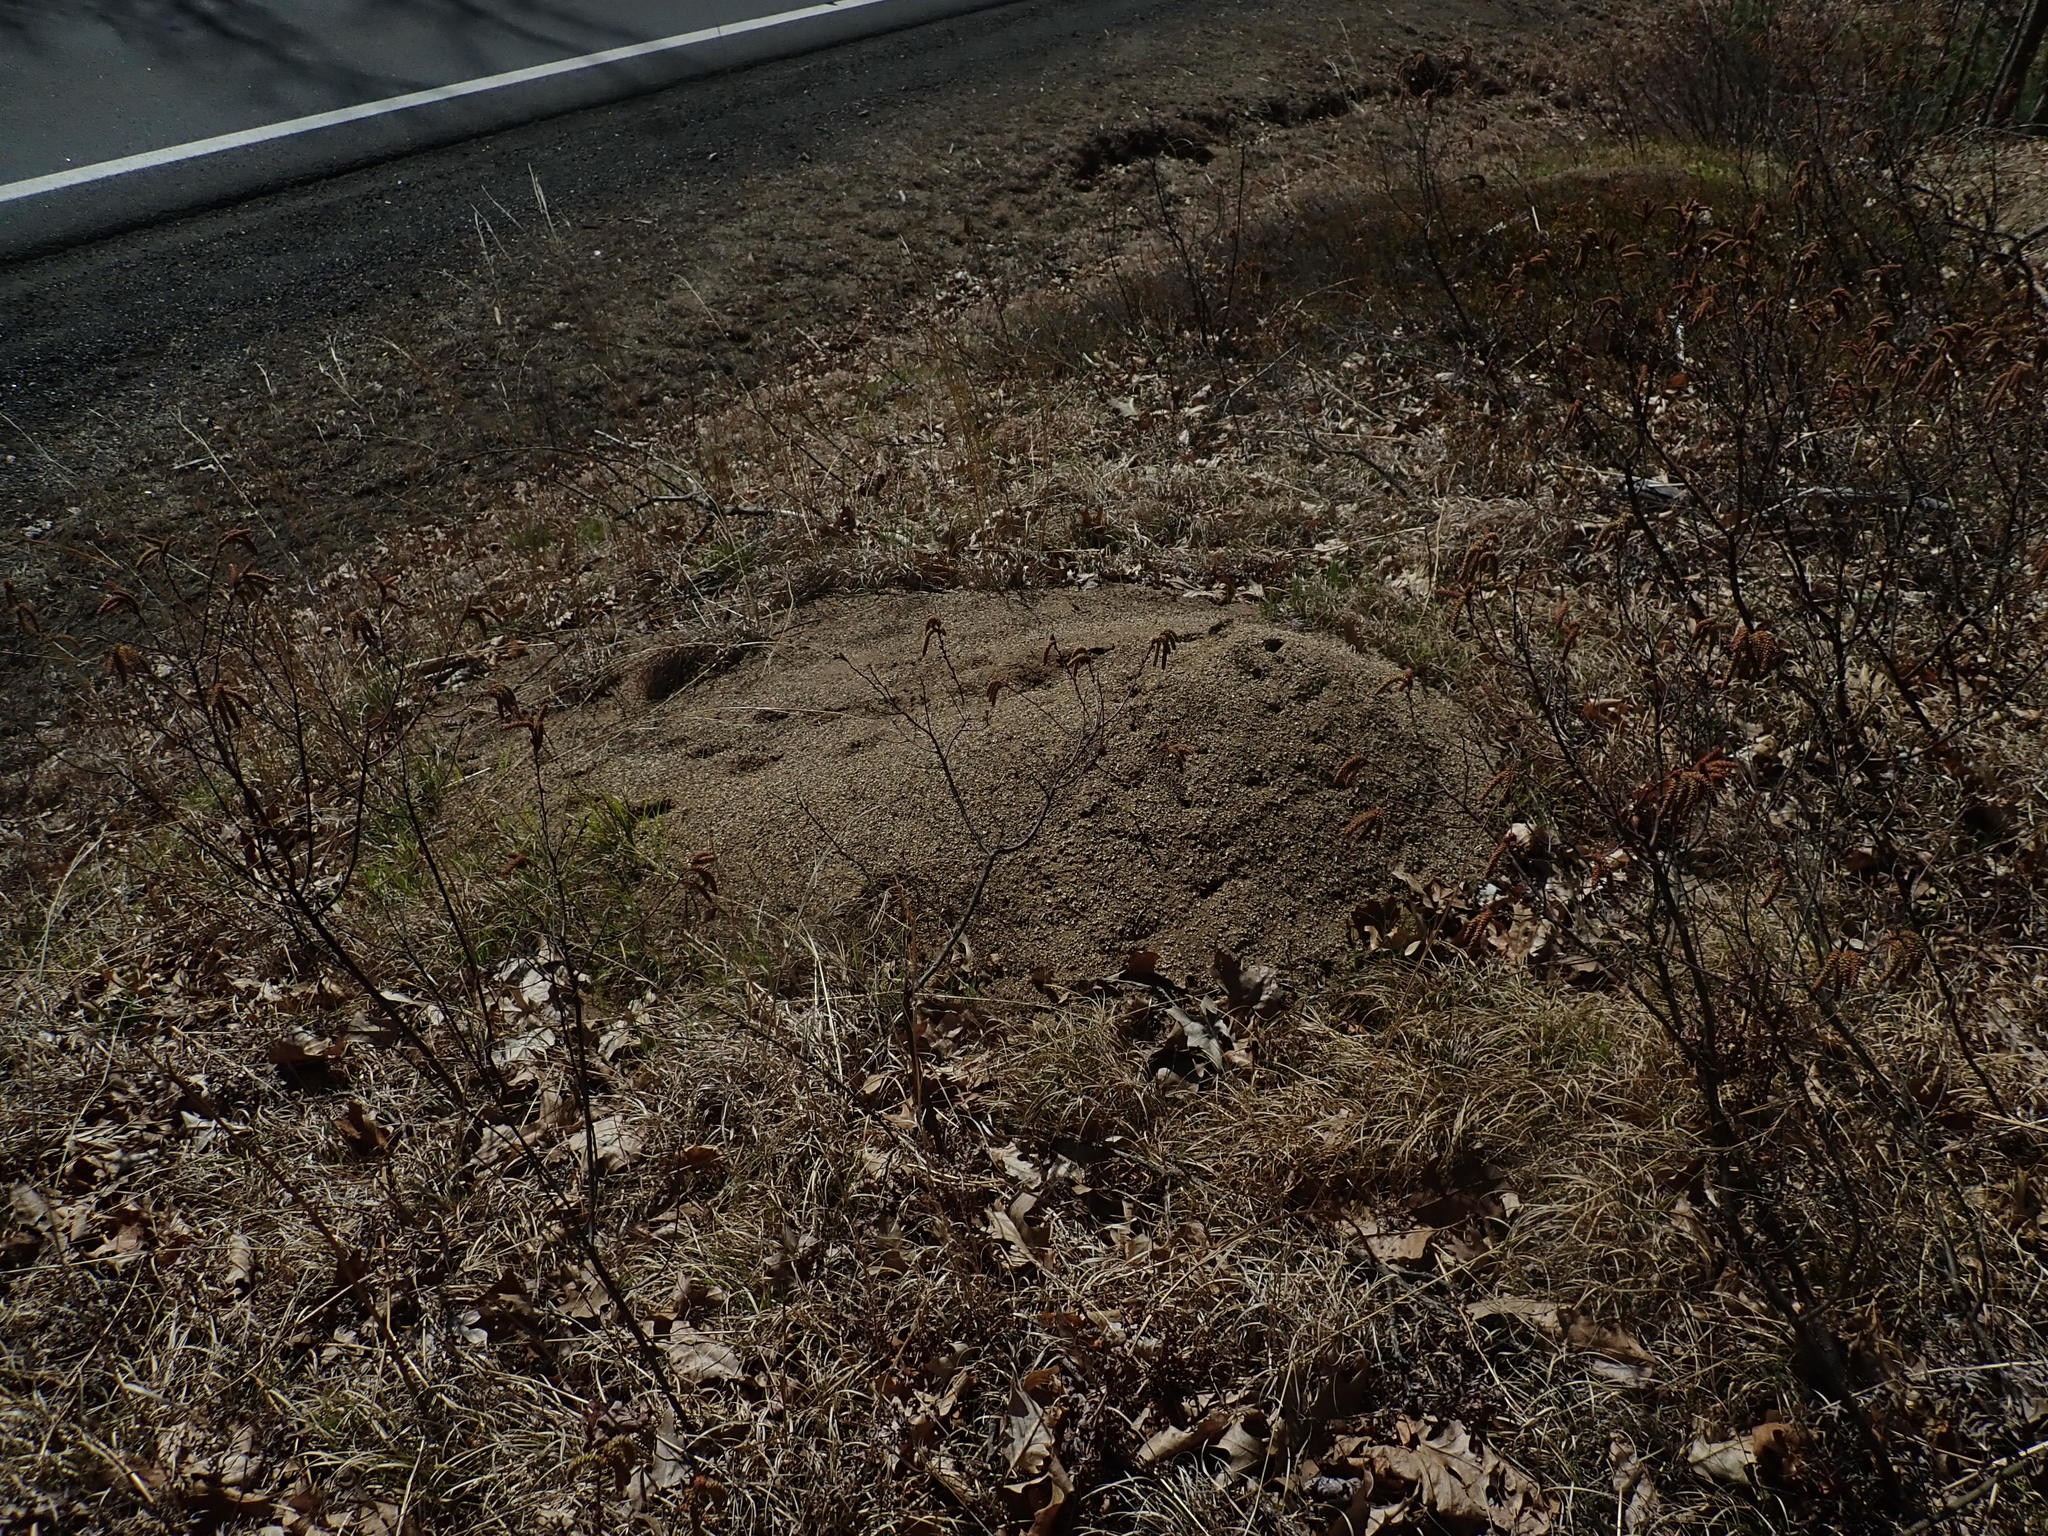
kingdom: Animalia
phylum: Arthropoda
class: Insecta
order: Hymenoptera
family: Formicidae
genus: Formica
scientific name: Formica exsectoides
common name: Allegheny mound ant
